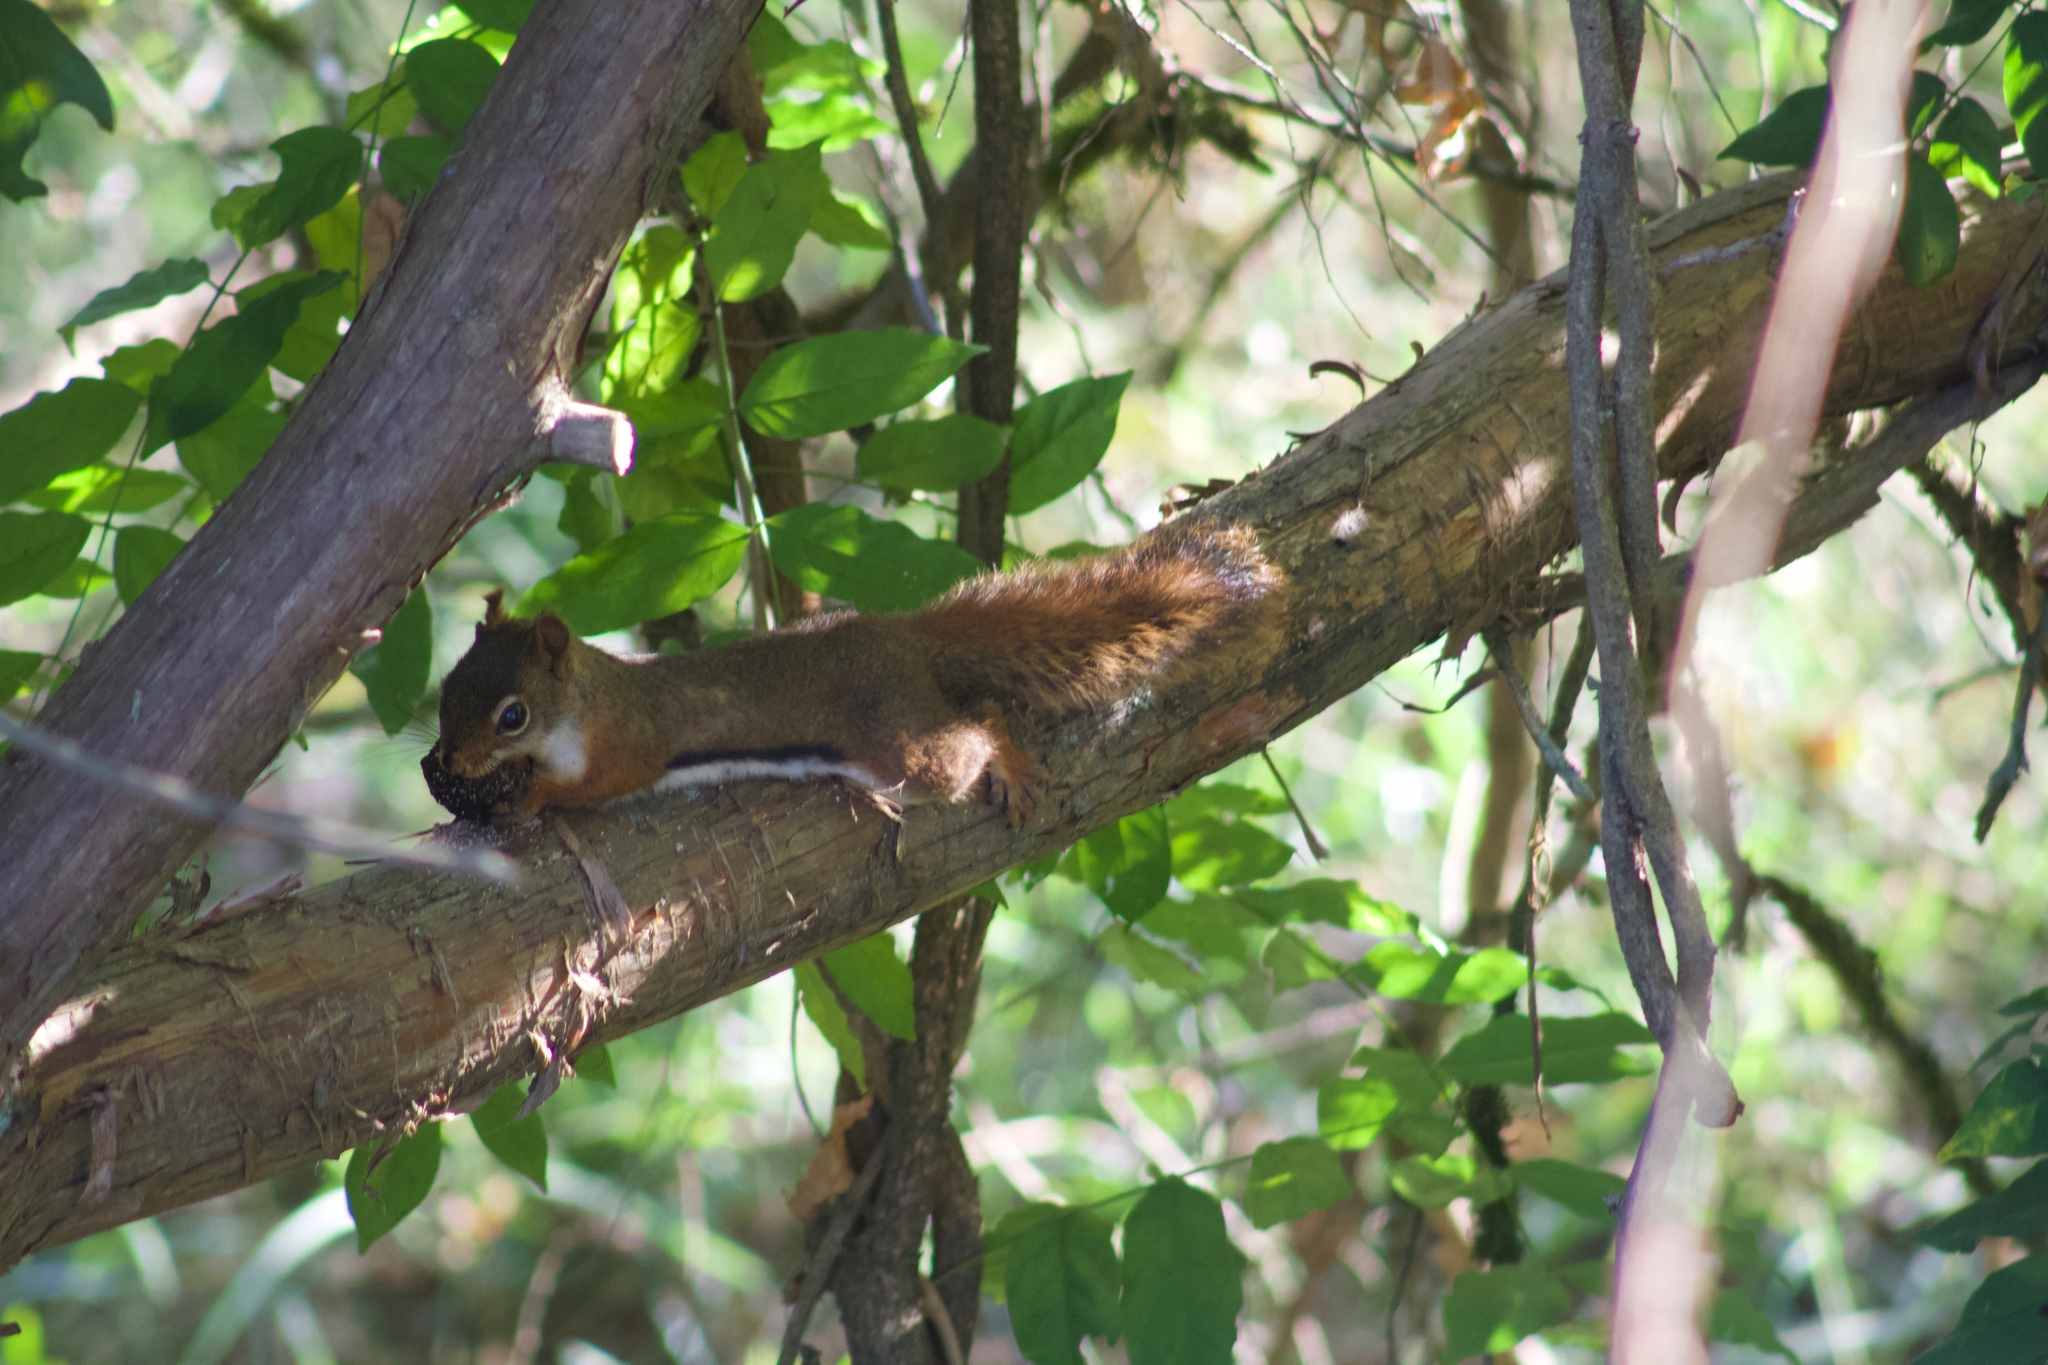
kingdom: Animalia
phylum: Chordata
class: Mammalia
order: Rodentia
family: Sciuridae
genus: Tamiasciurus
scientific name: Tamiasciurus hudsonicus
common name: Red squirrel
